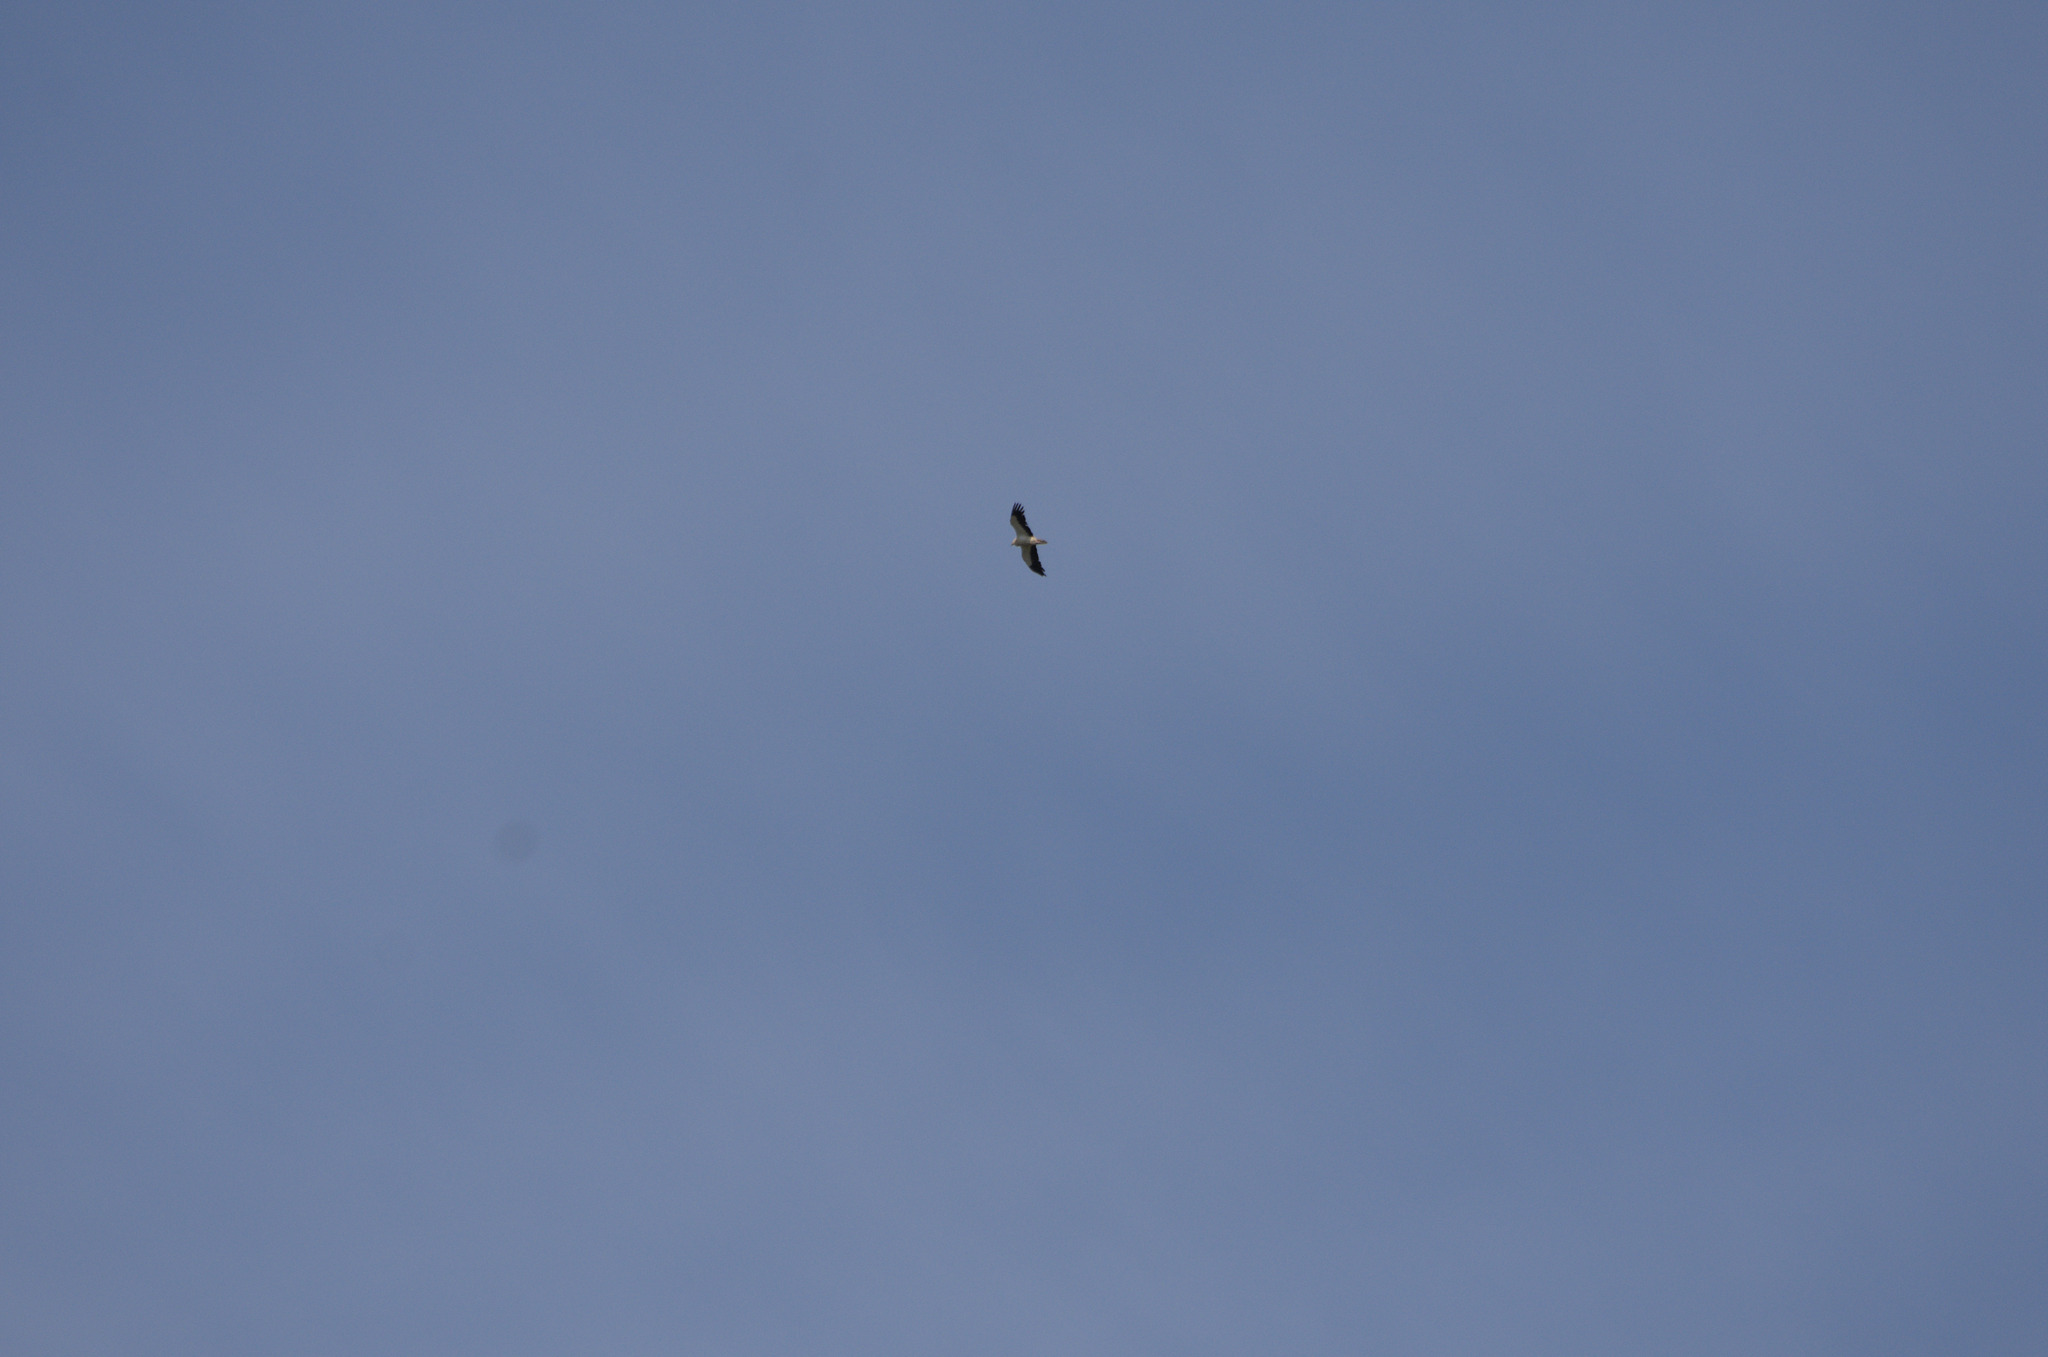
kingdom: Animalia
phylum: Chordata
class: Aves
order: Accipitriformes
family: Accipitridae
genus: Neophron
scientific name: Neophron percnopterus
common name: Egyptian vulture
